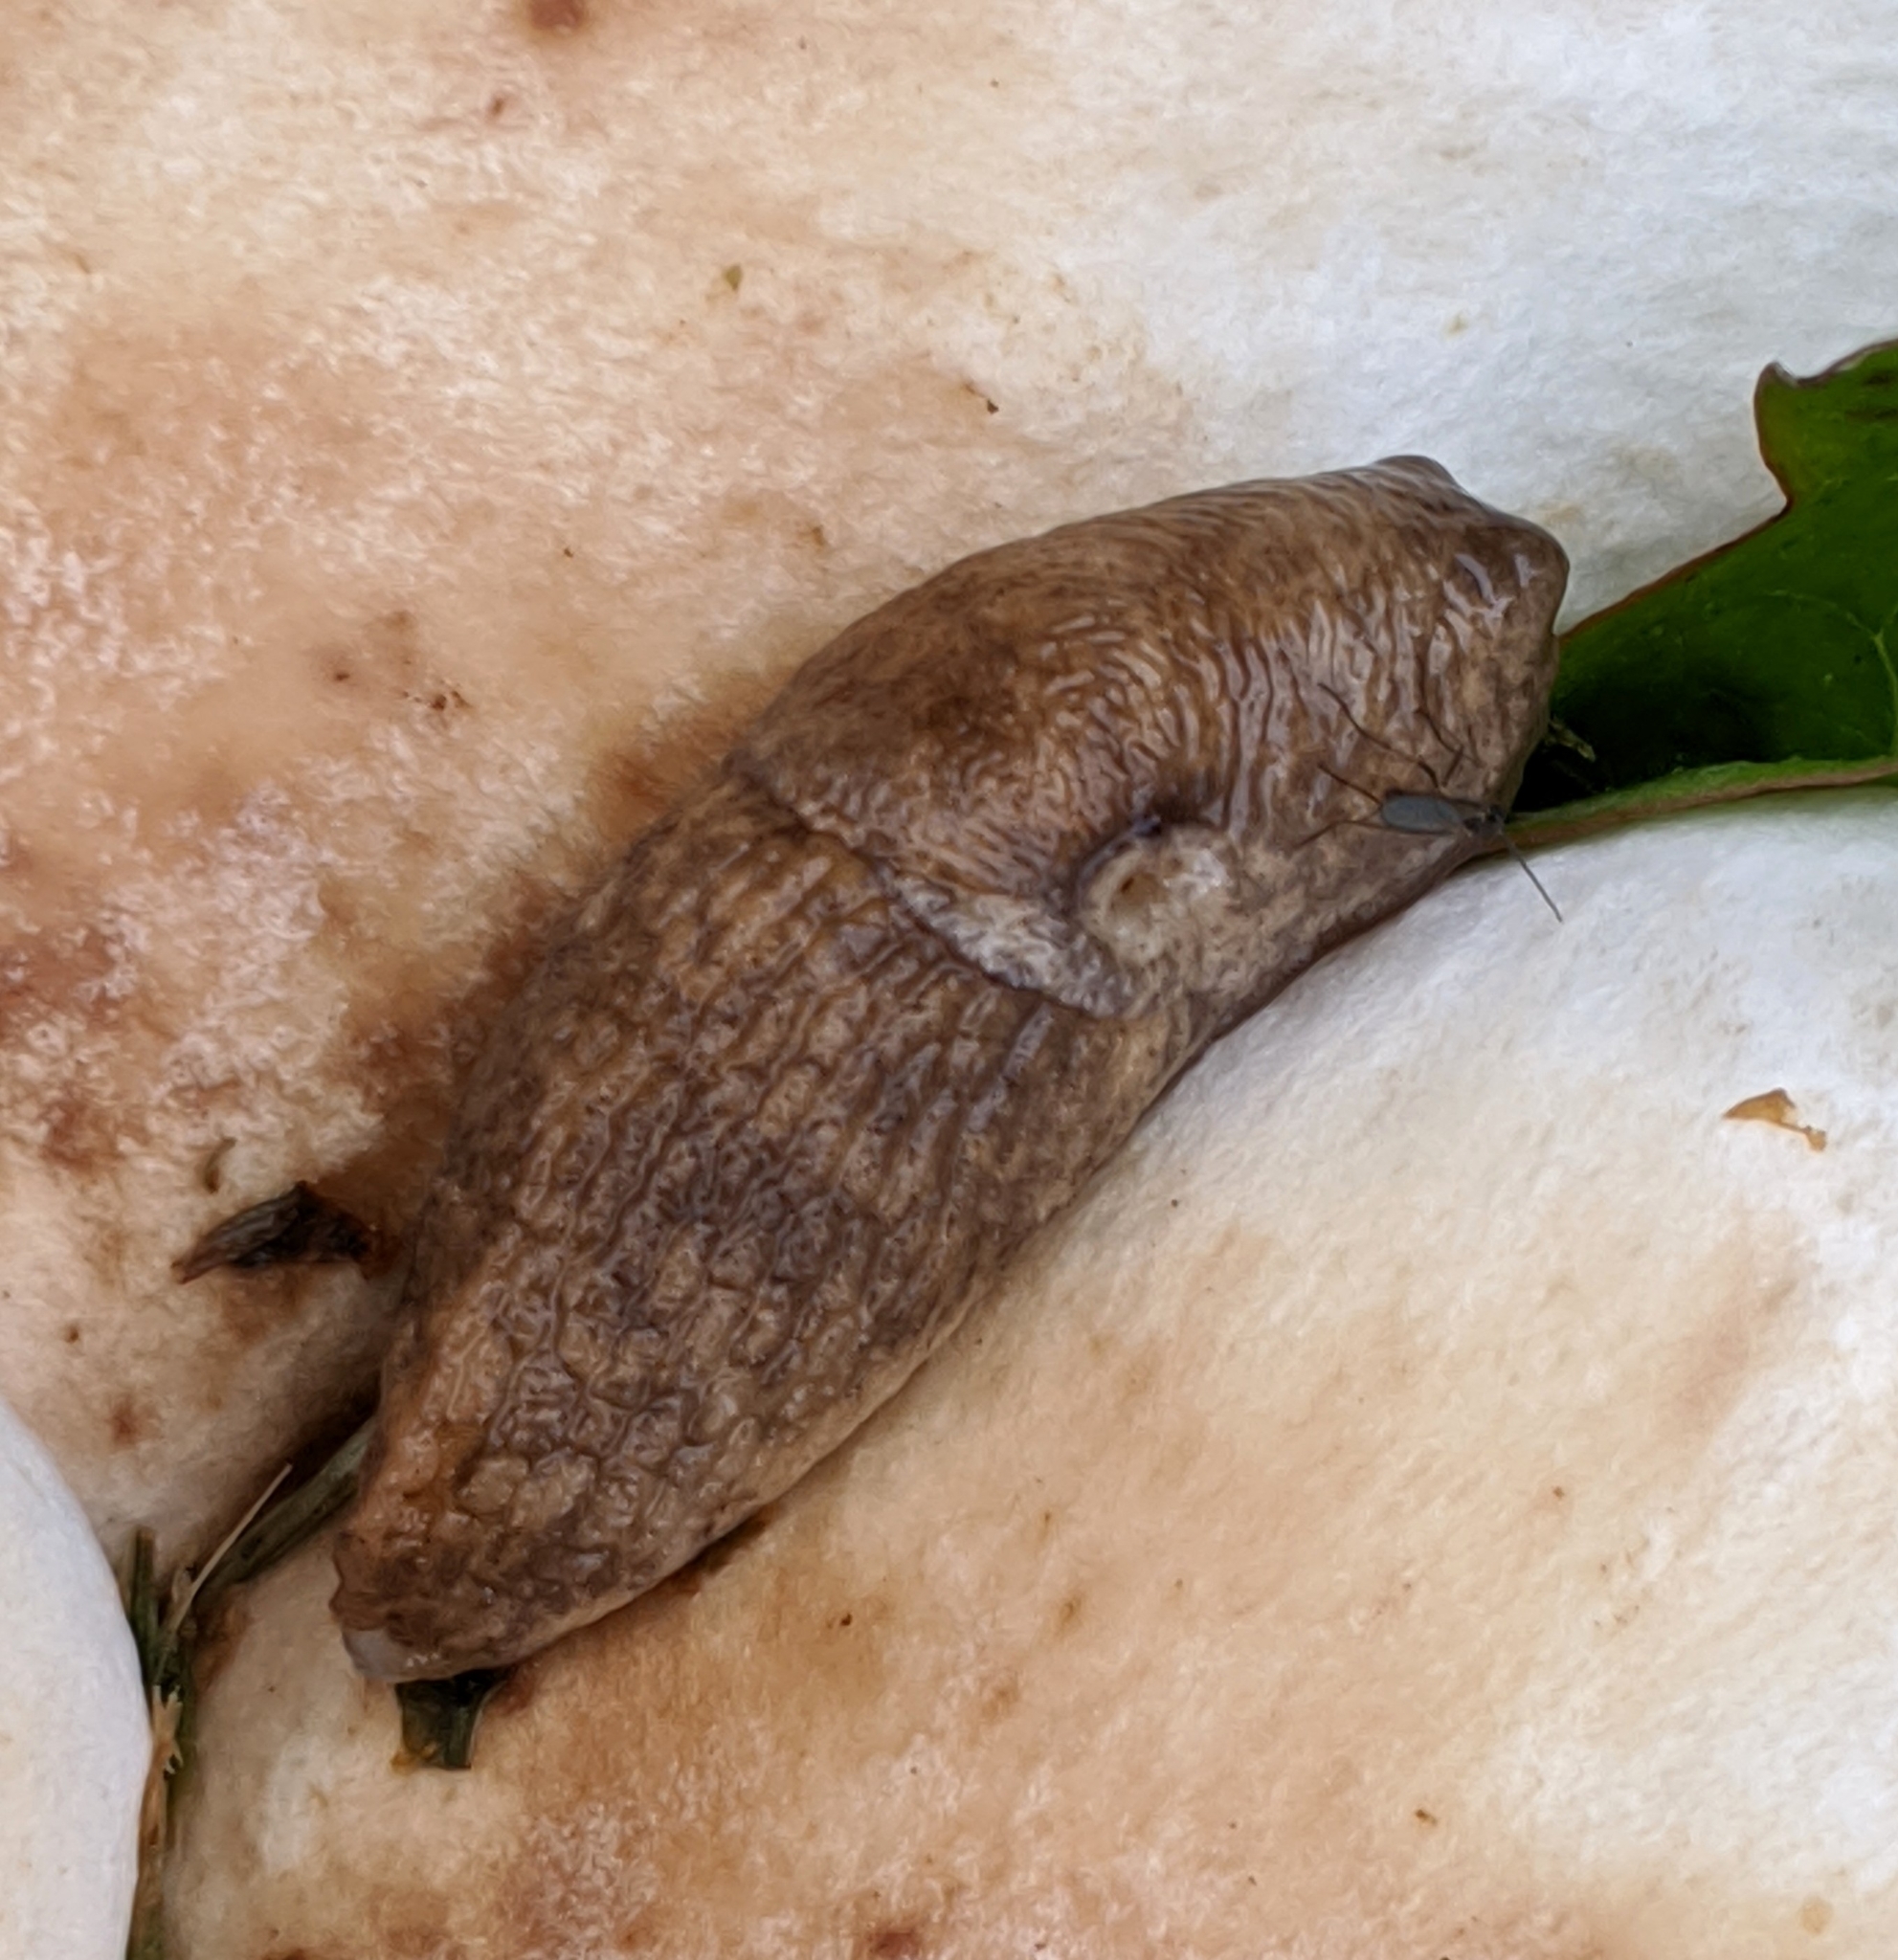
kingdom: Animalia
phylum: Mollusca
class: Gastropoda
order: Stylommatophora
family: Agriolimacidae
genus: Deroceras
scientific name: Deroceras reticulatum
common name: Gray field slug
